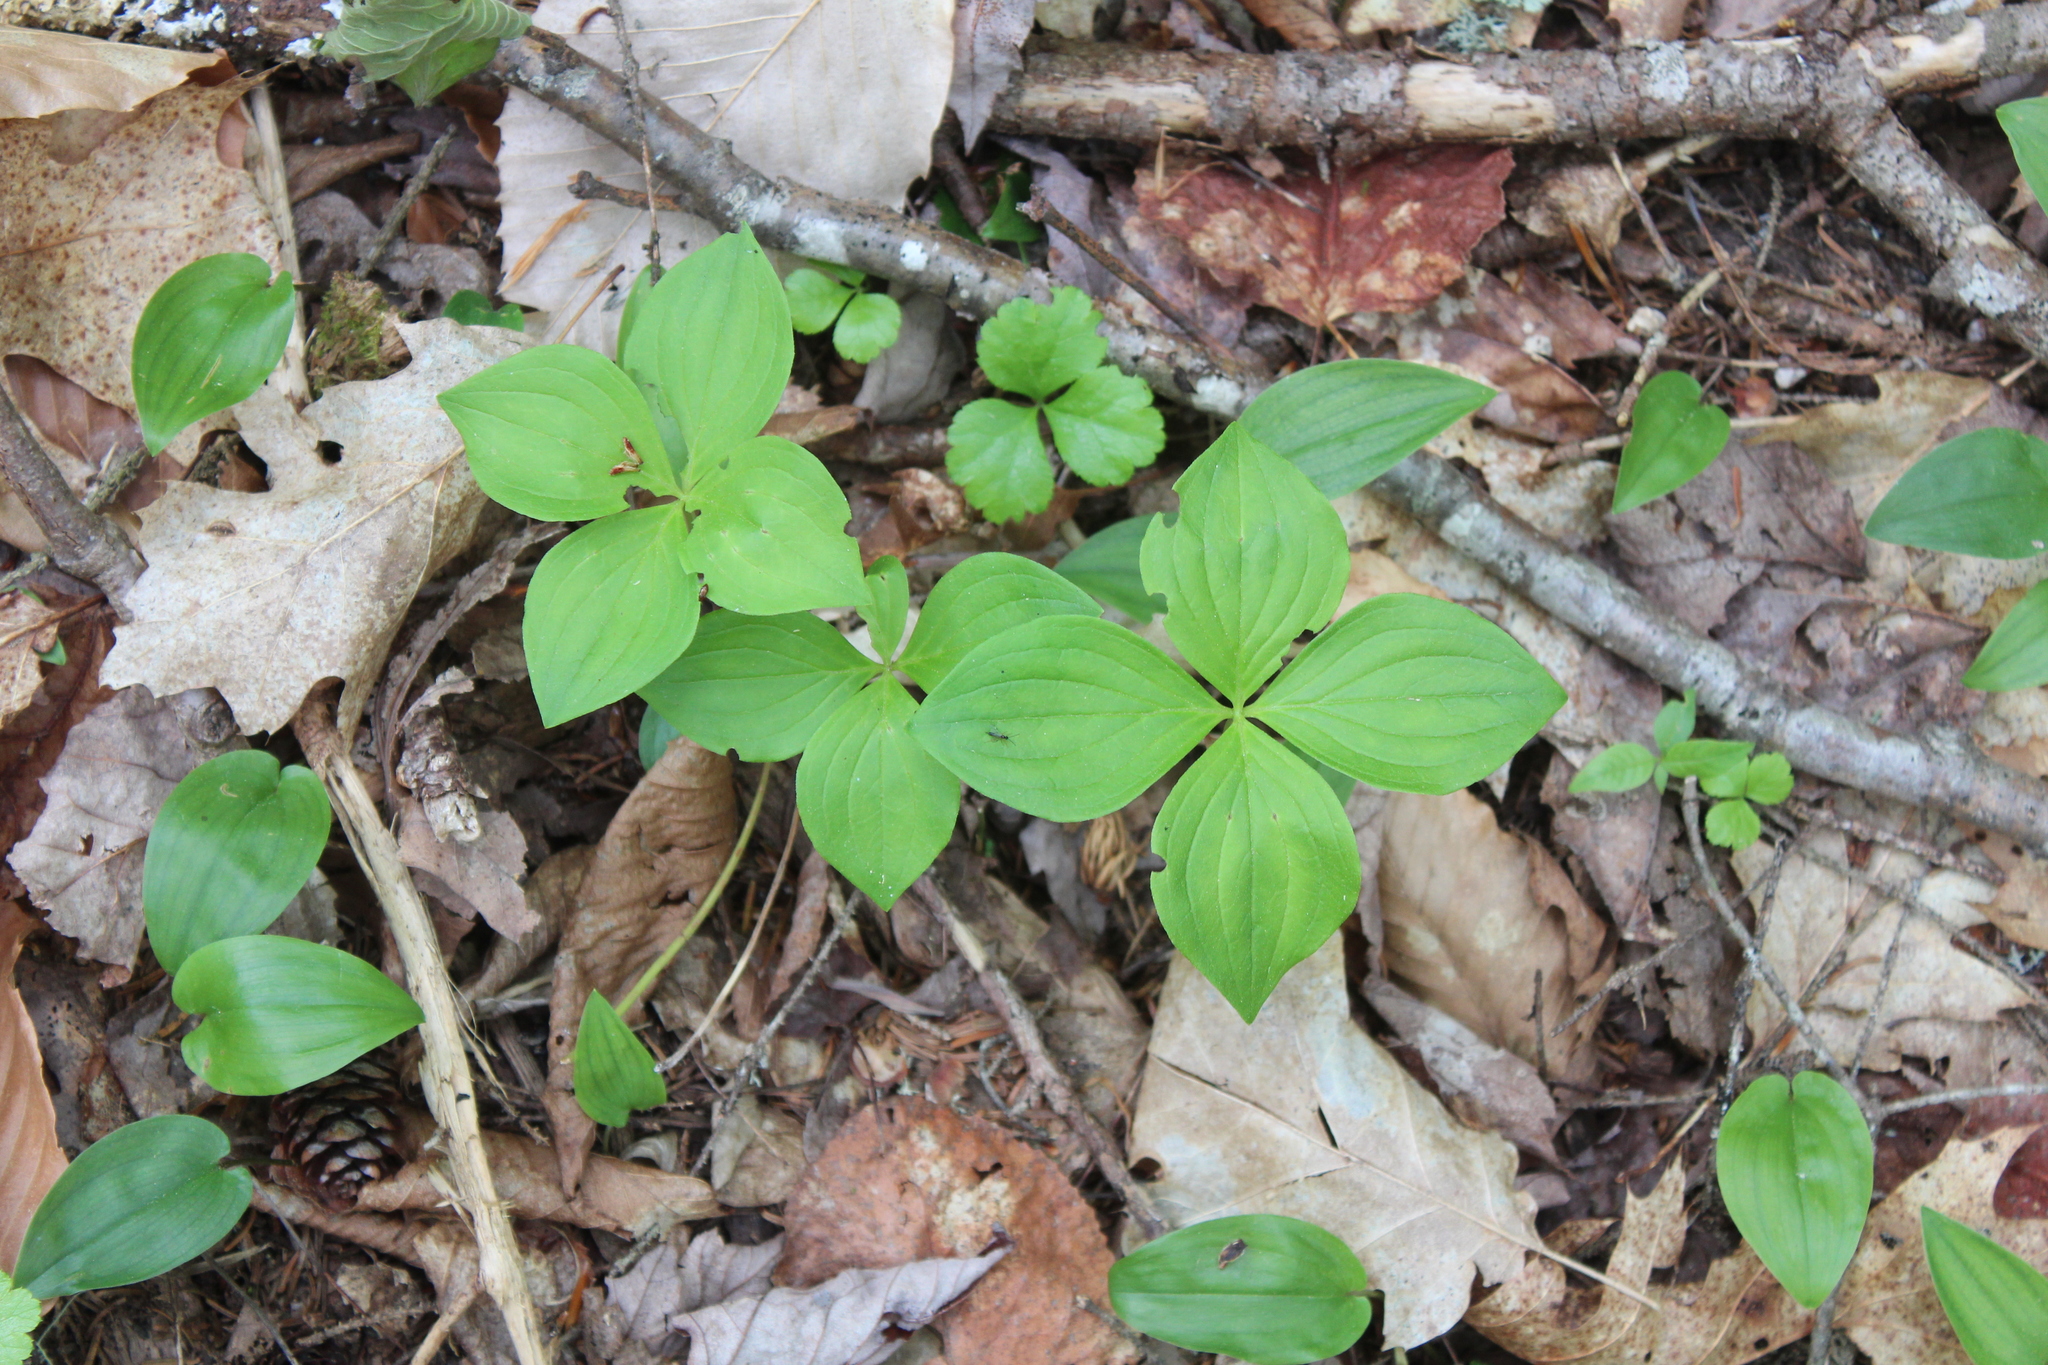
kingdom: Plantae
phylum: Tracheophyta
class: Magnoliopsida
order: Cornales
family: Cornaceae
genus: Cornus
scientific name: Cornus canadensis
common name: Creeping dogwood
